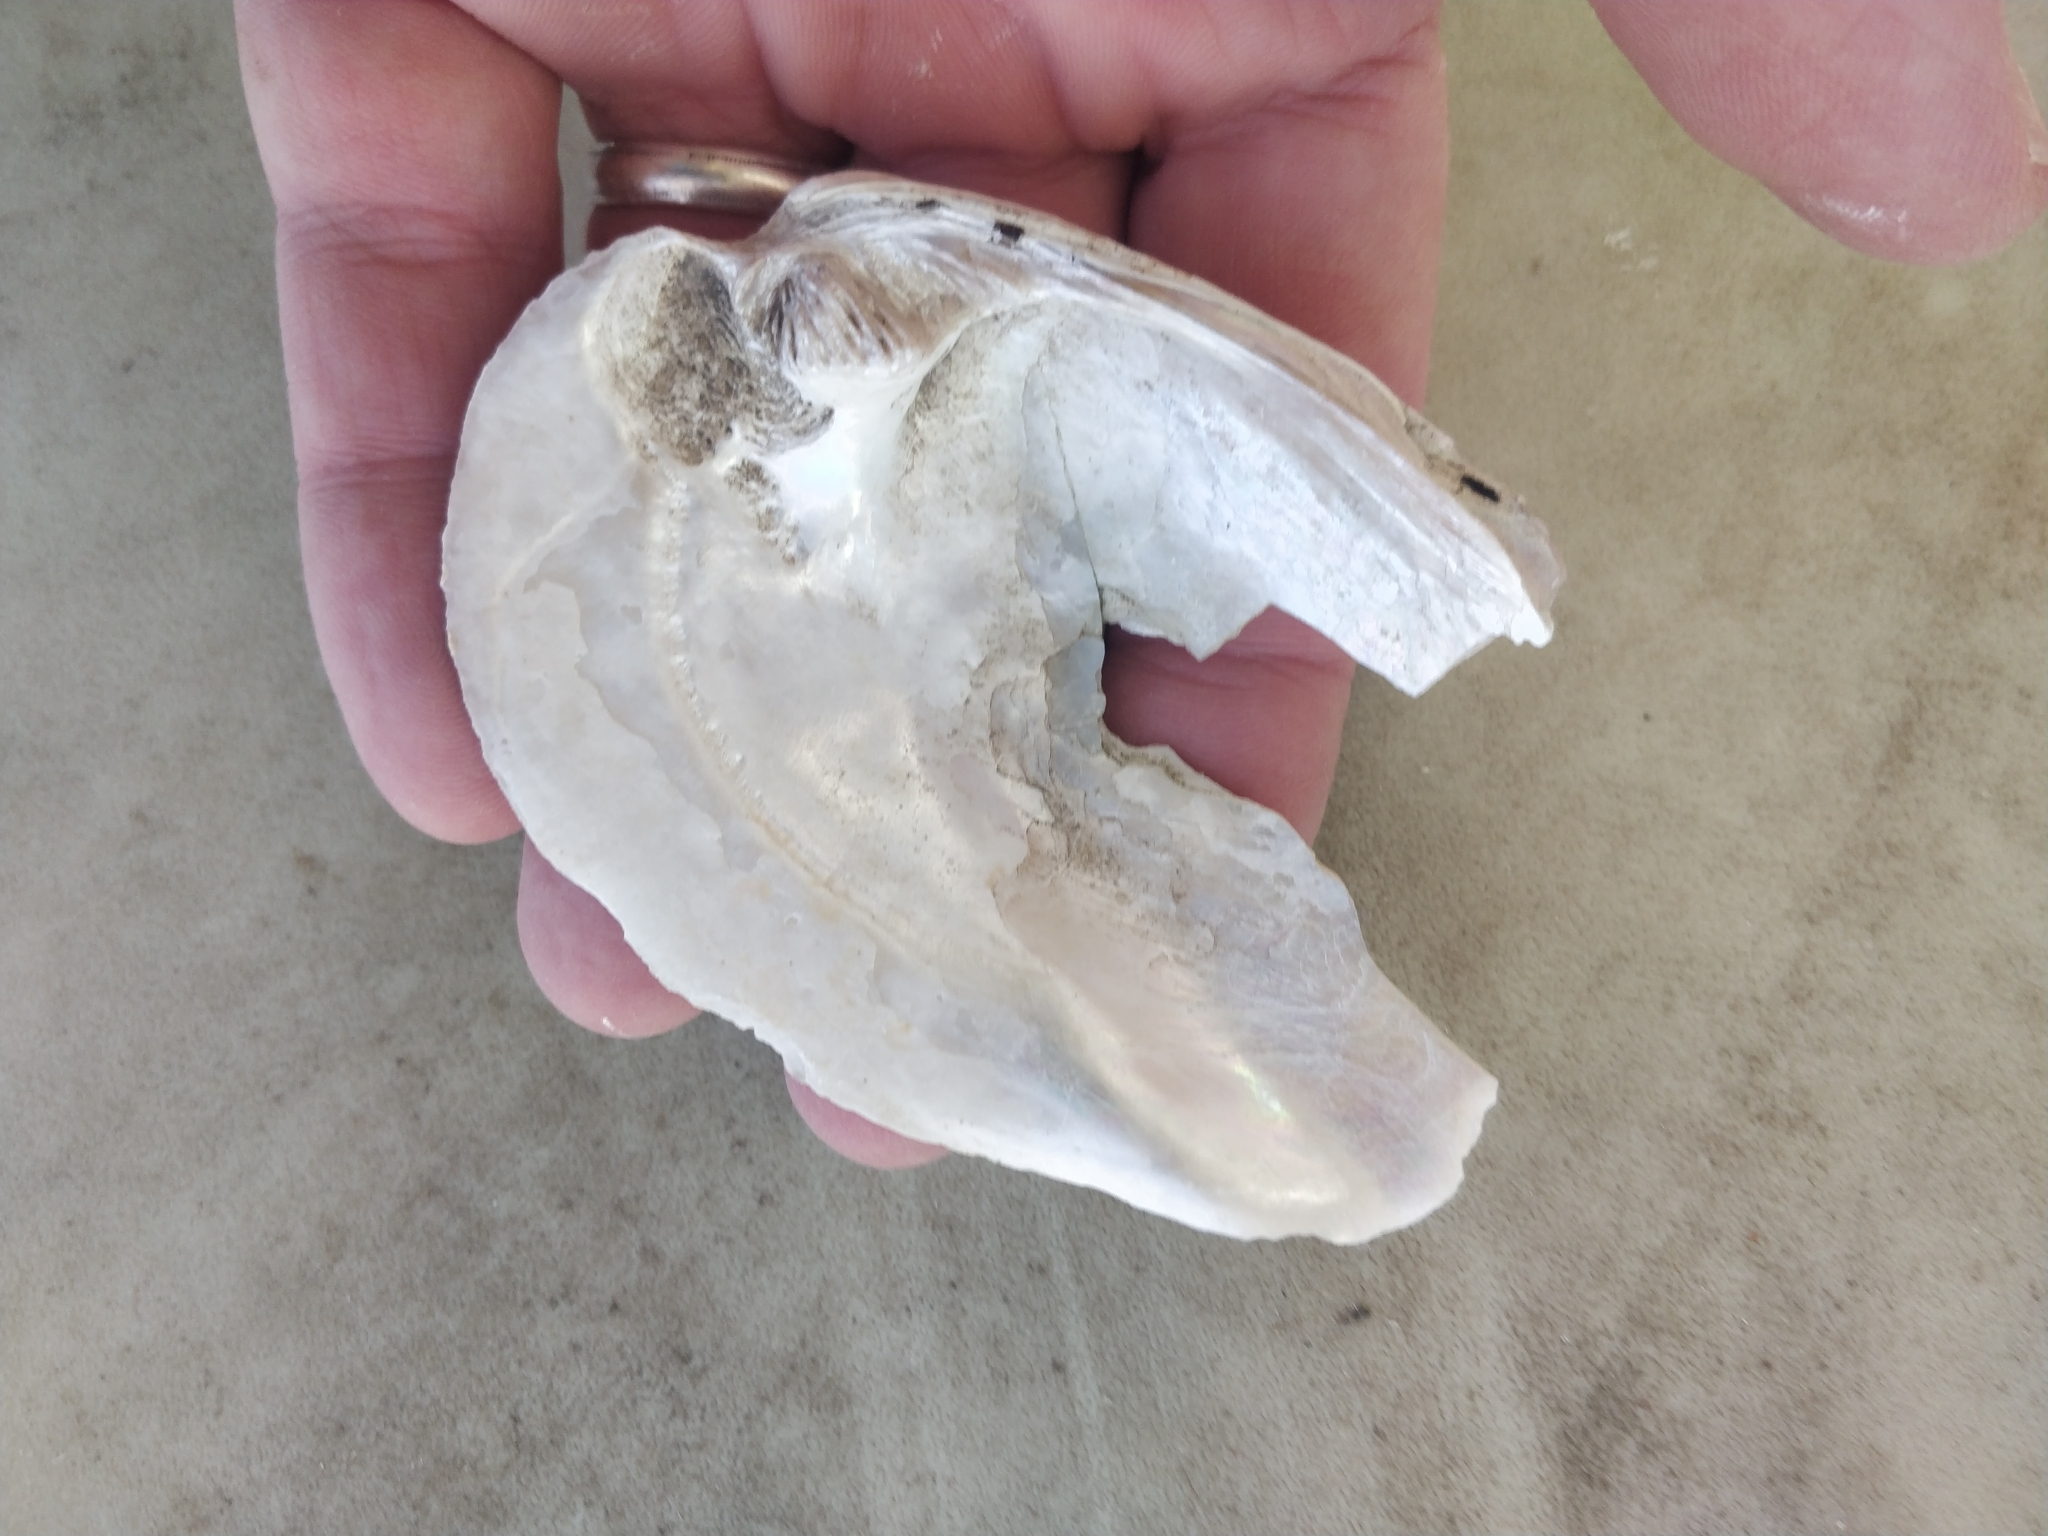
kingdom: Animalia
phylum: Mollusca
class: Bivalvia
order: Unionida
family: Unionidae
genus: Amblema
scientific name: Amblema plicata
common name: Threeridge
